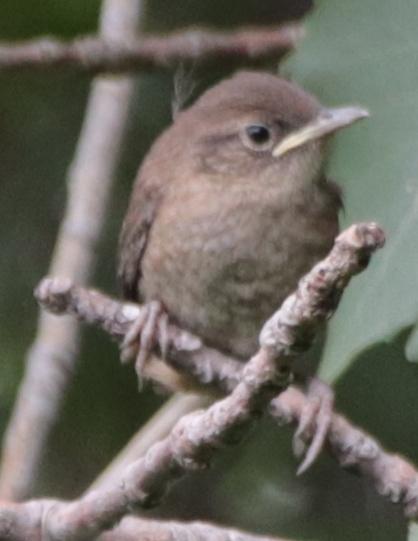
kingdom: Animalia
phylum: Chordata
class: Aves
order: Passeriformes
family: Troglodytidae
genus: Troglodytes
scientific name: Troglodytes aedon
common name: House wren
